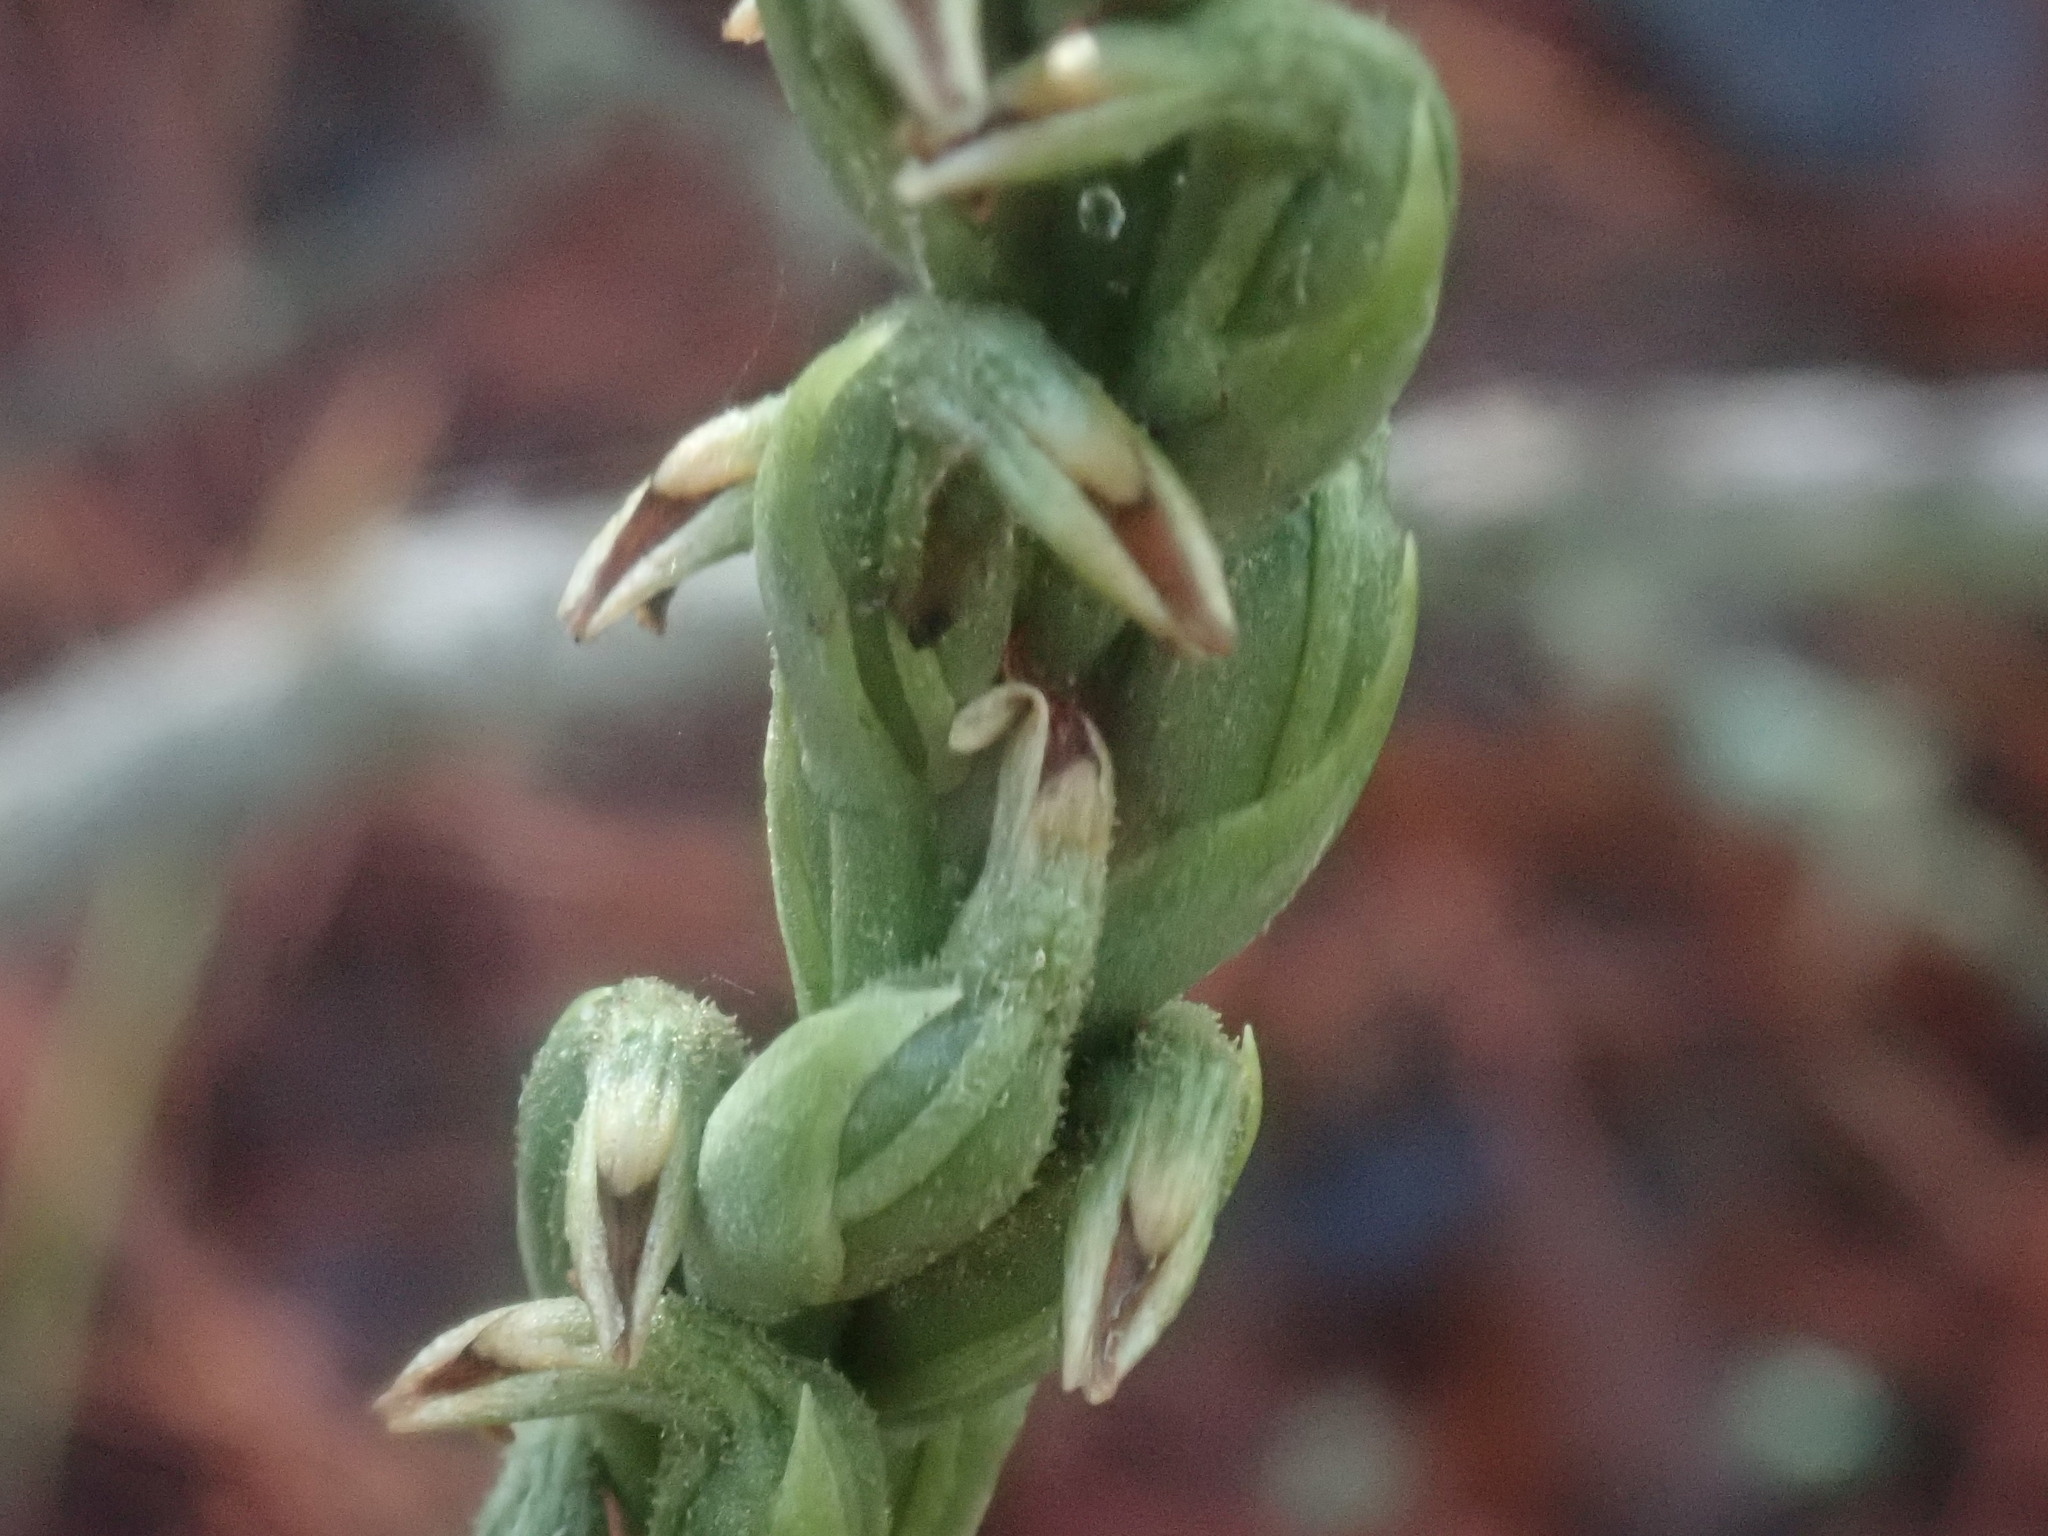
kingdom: Plantae
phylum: Tracheophyta
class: Liliopsida
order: Asparagales
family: Orchidaceae
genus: Microthelys
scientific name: Microthelys rubrocalosa
